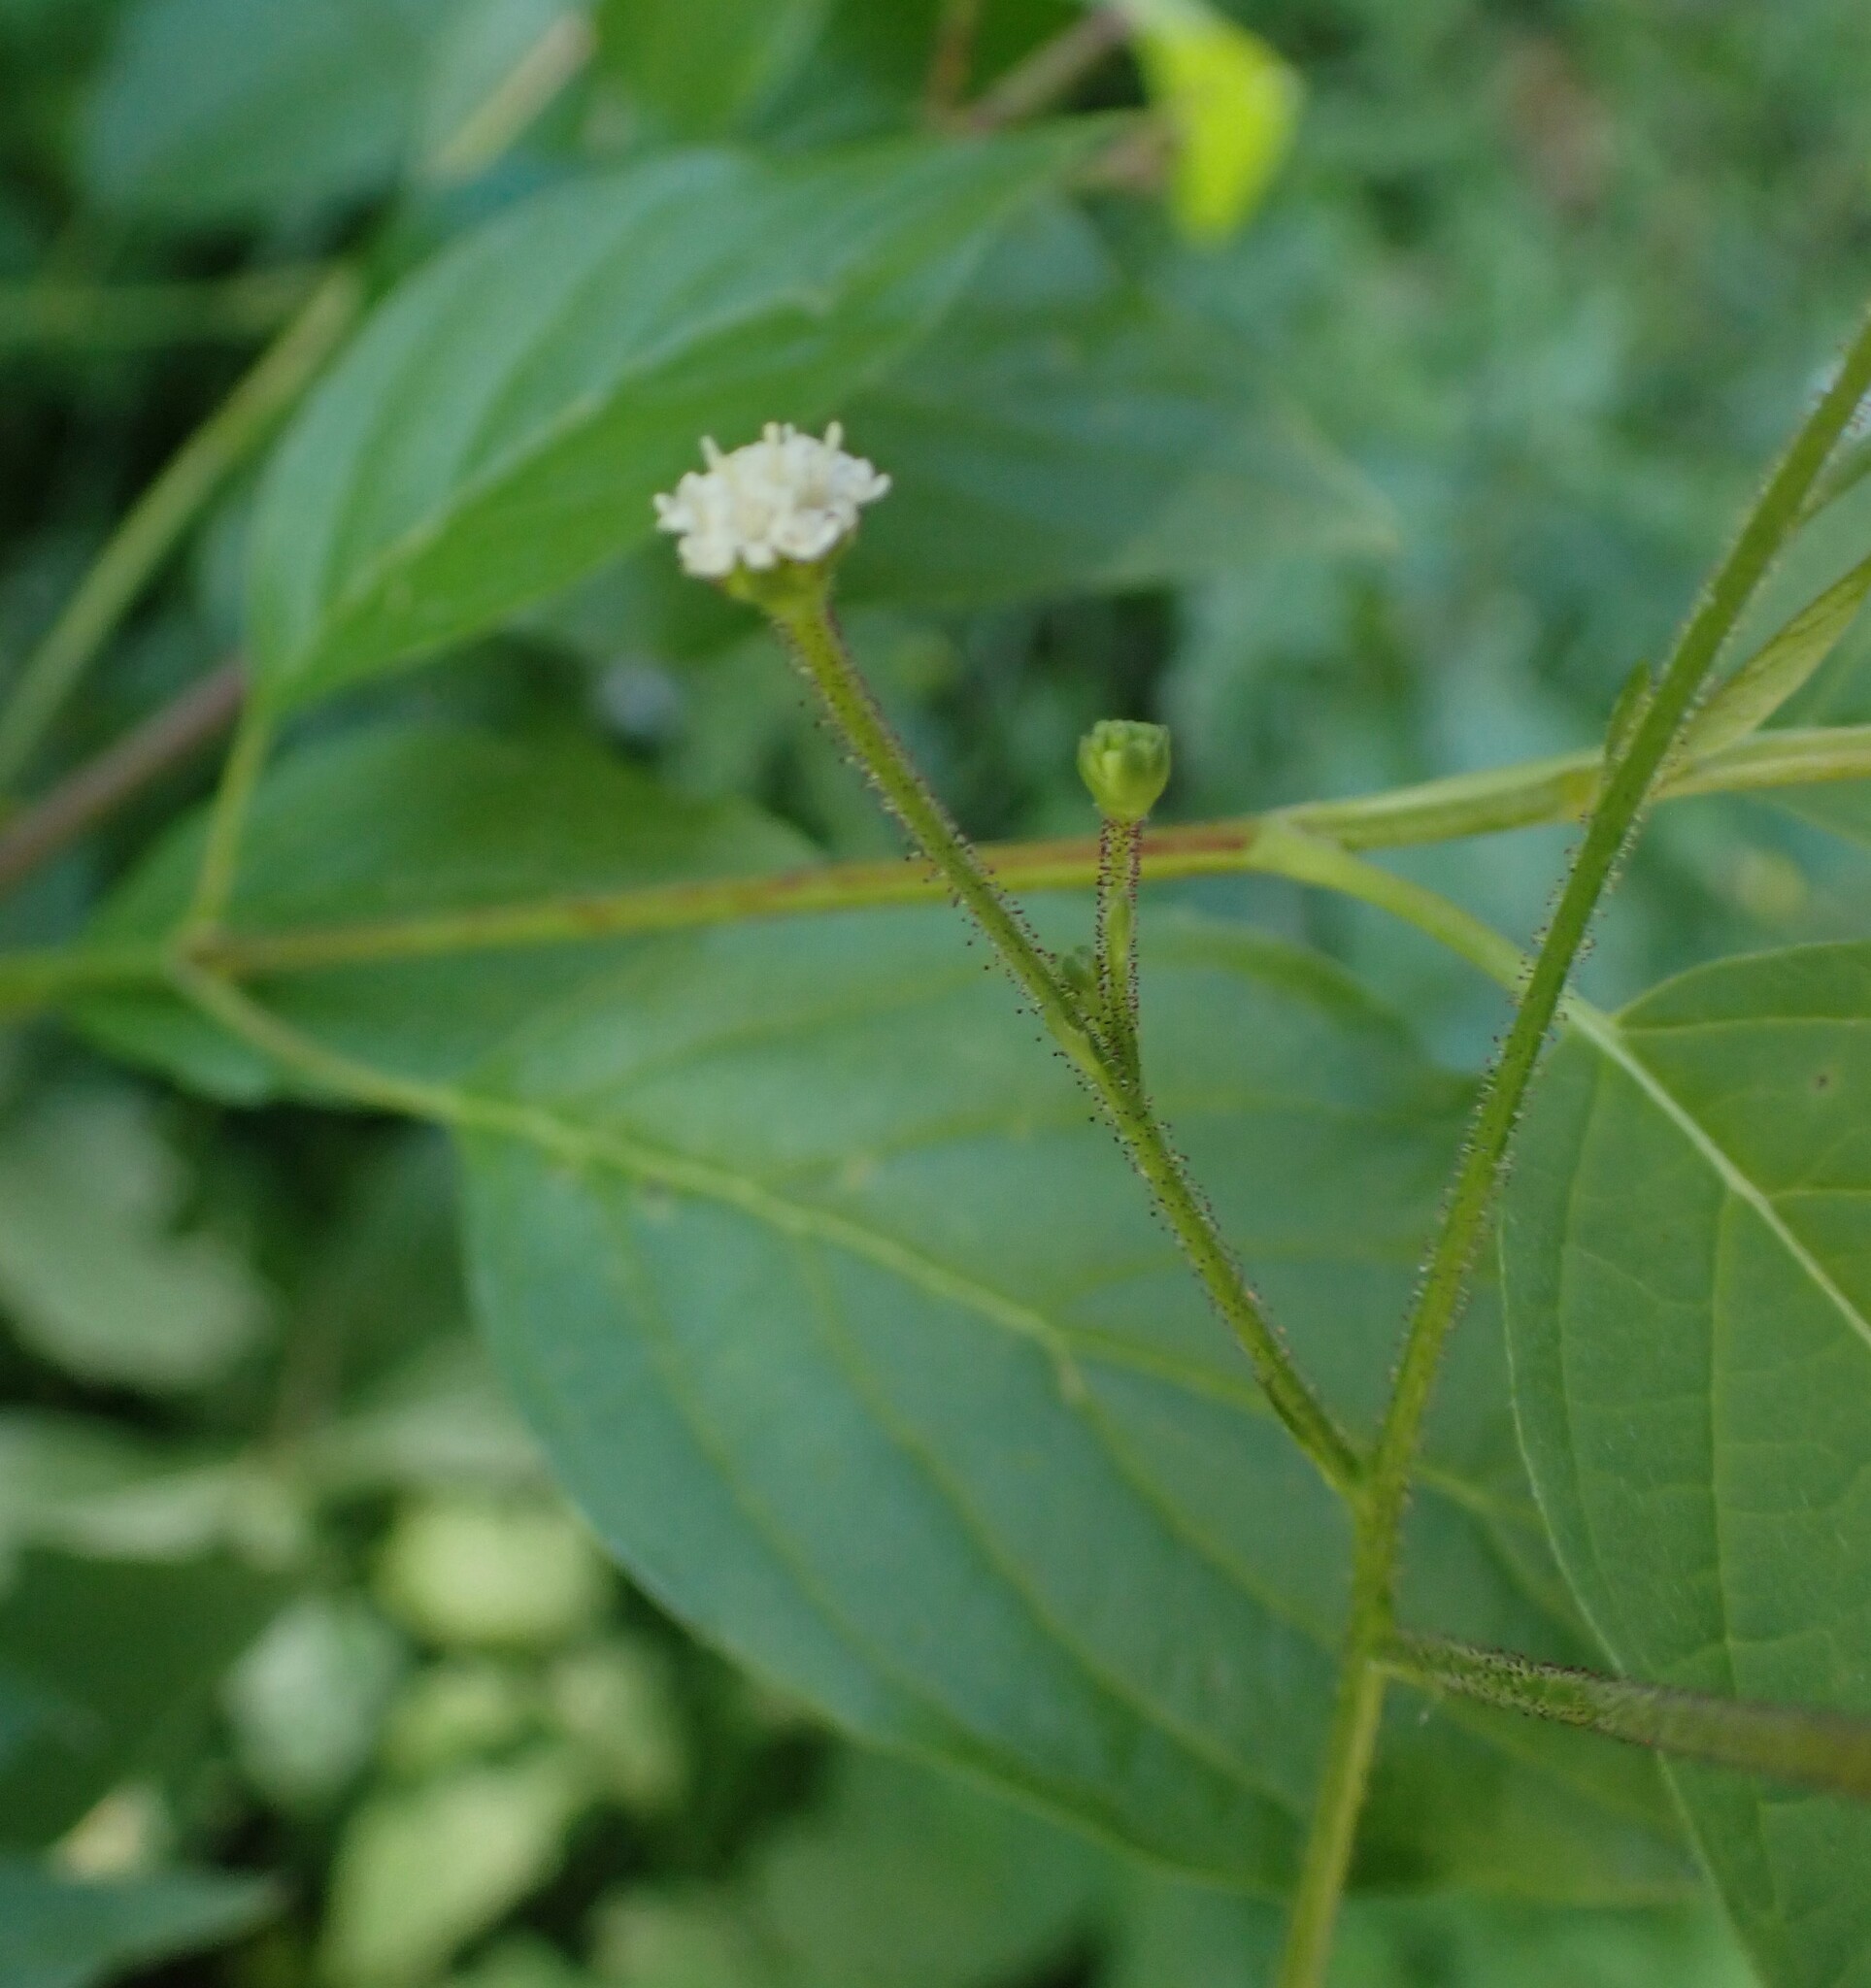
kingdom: Plantae
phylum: Tracheophyta
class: Magnoliopsida
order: Asterales
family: Asteraceae
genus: Adenocaulon
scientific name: Adenocaulon bicolor
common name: Trailplant
